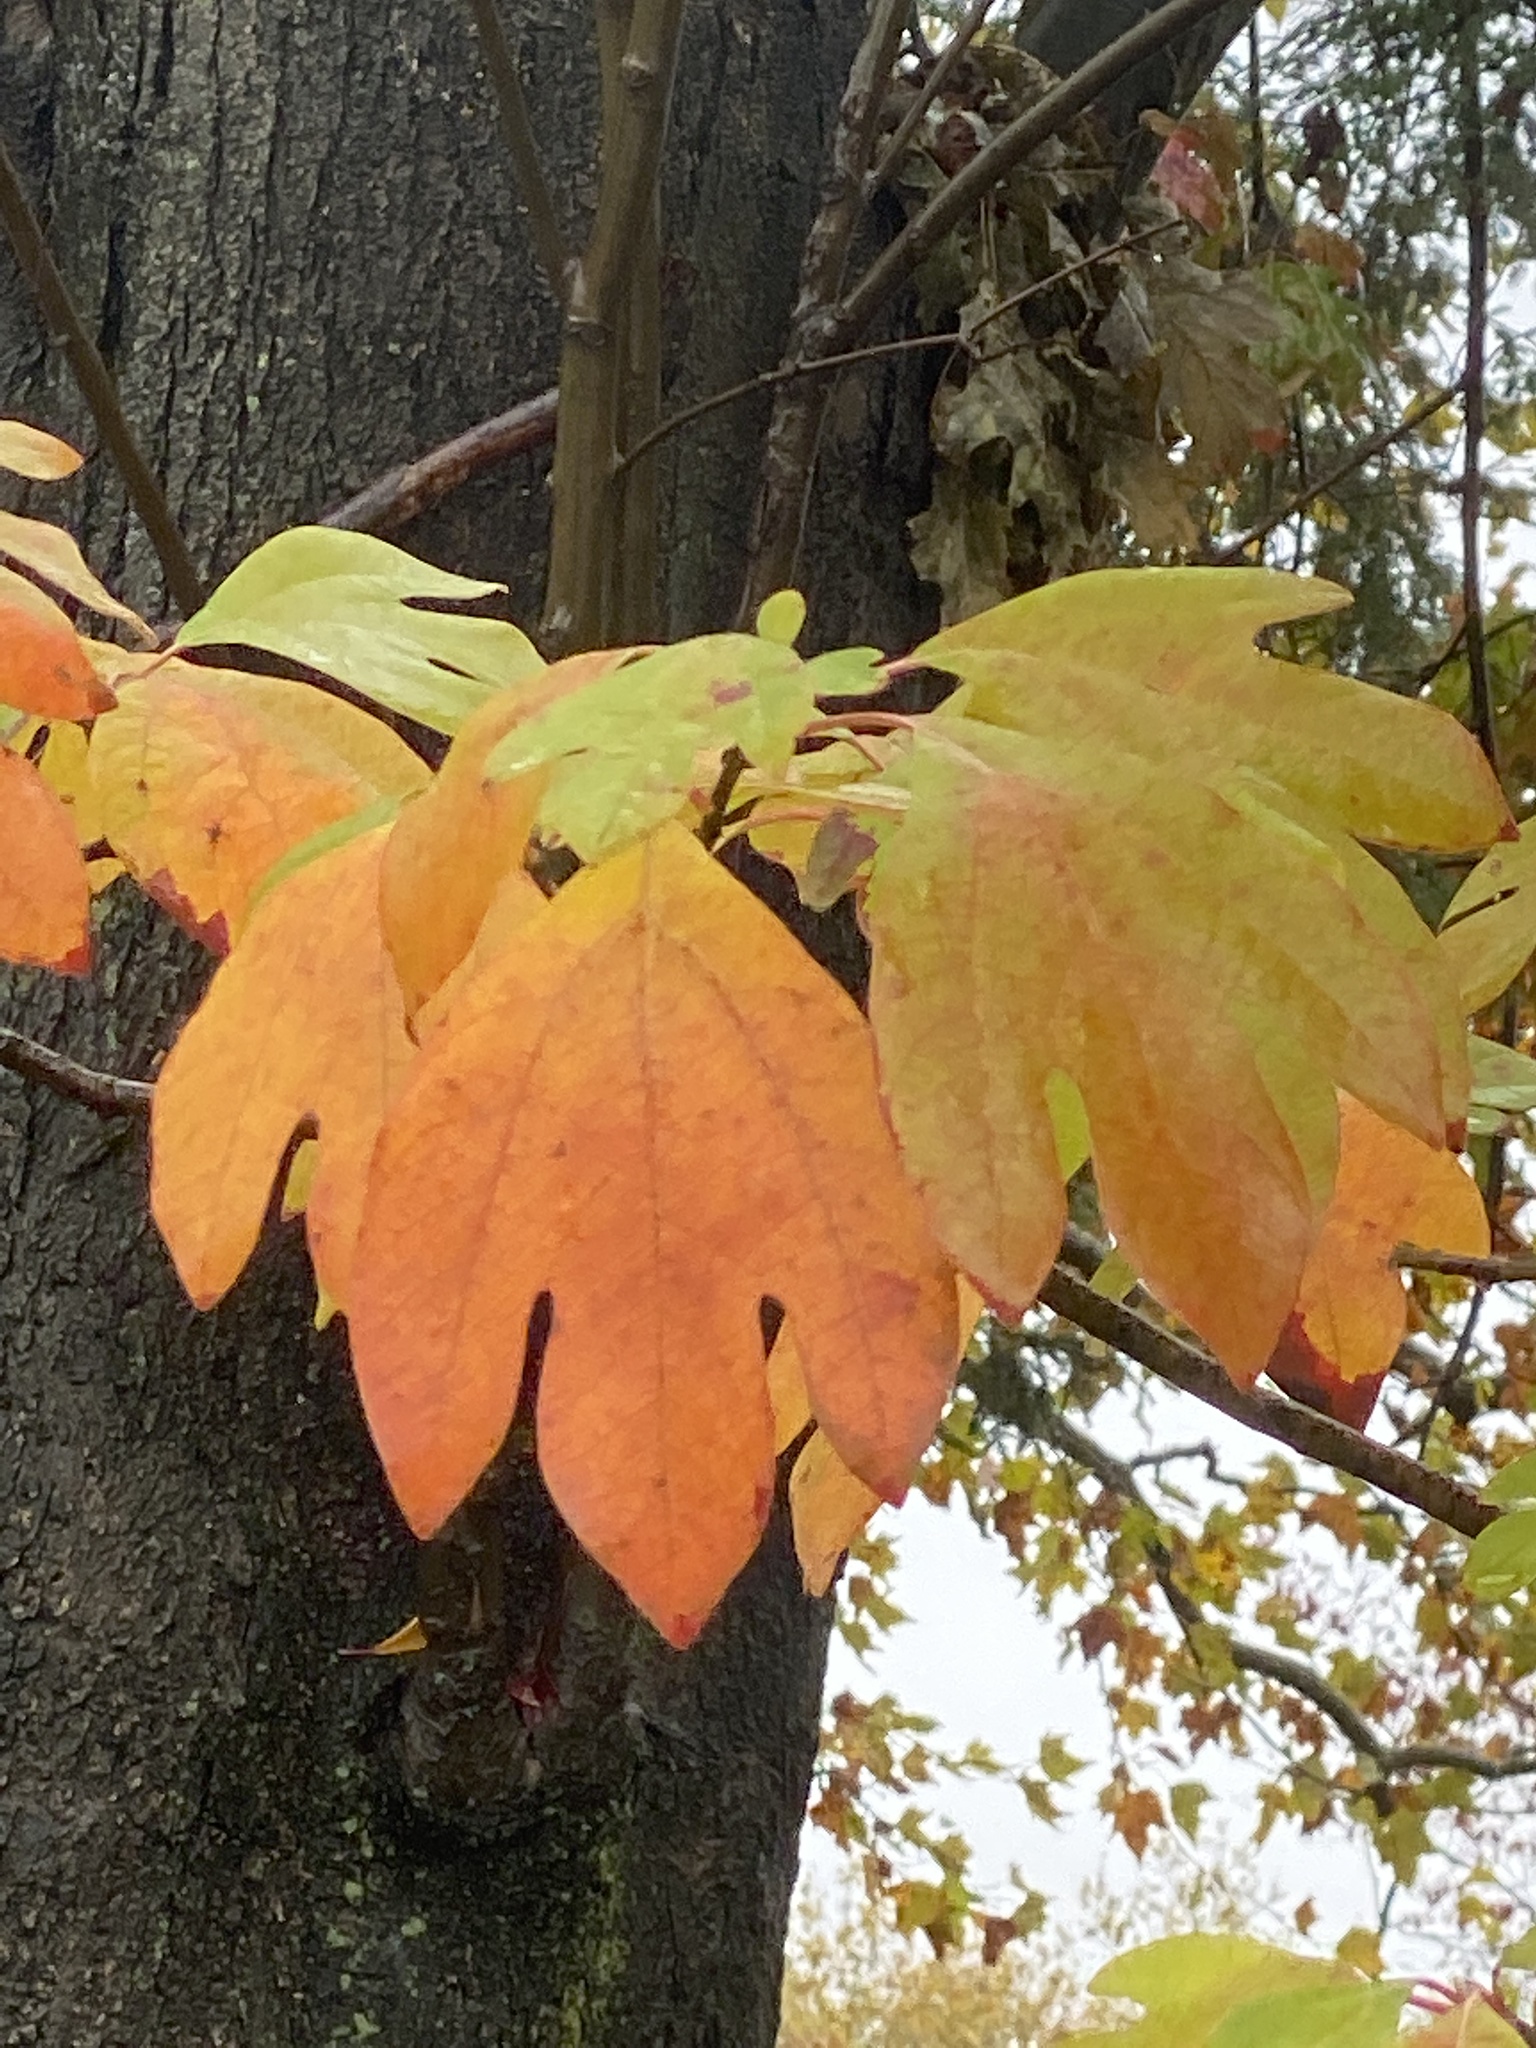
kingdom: Plantae
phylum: Tracheophyta
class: Magnoliopsida
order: Laurales
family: Lauraceae
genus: Sassafras
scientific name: Sassafras albidum
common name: Sassafras
